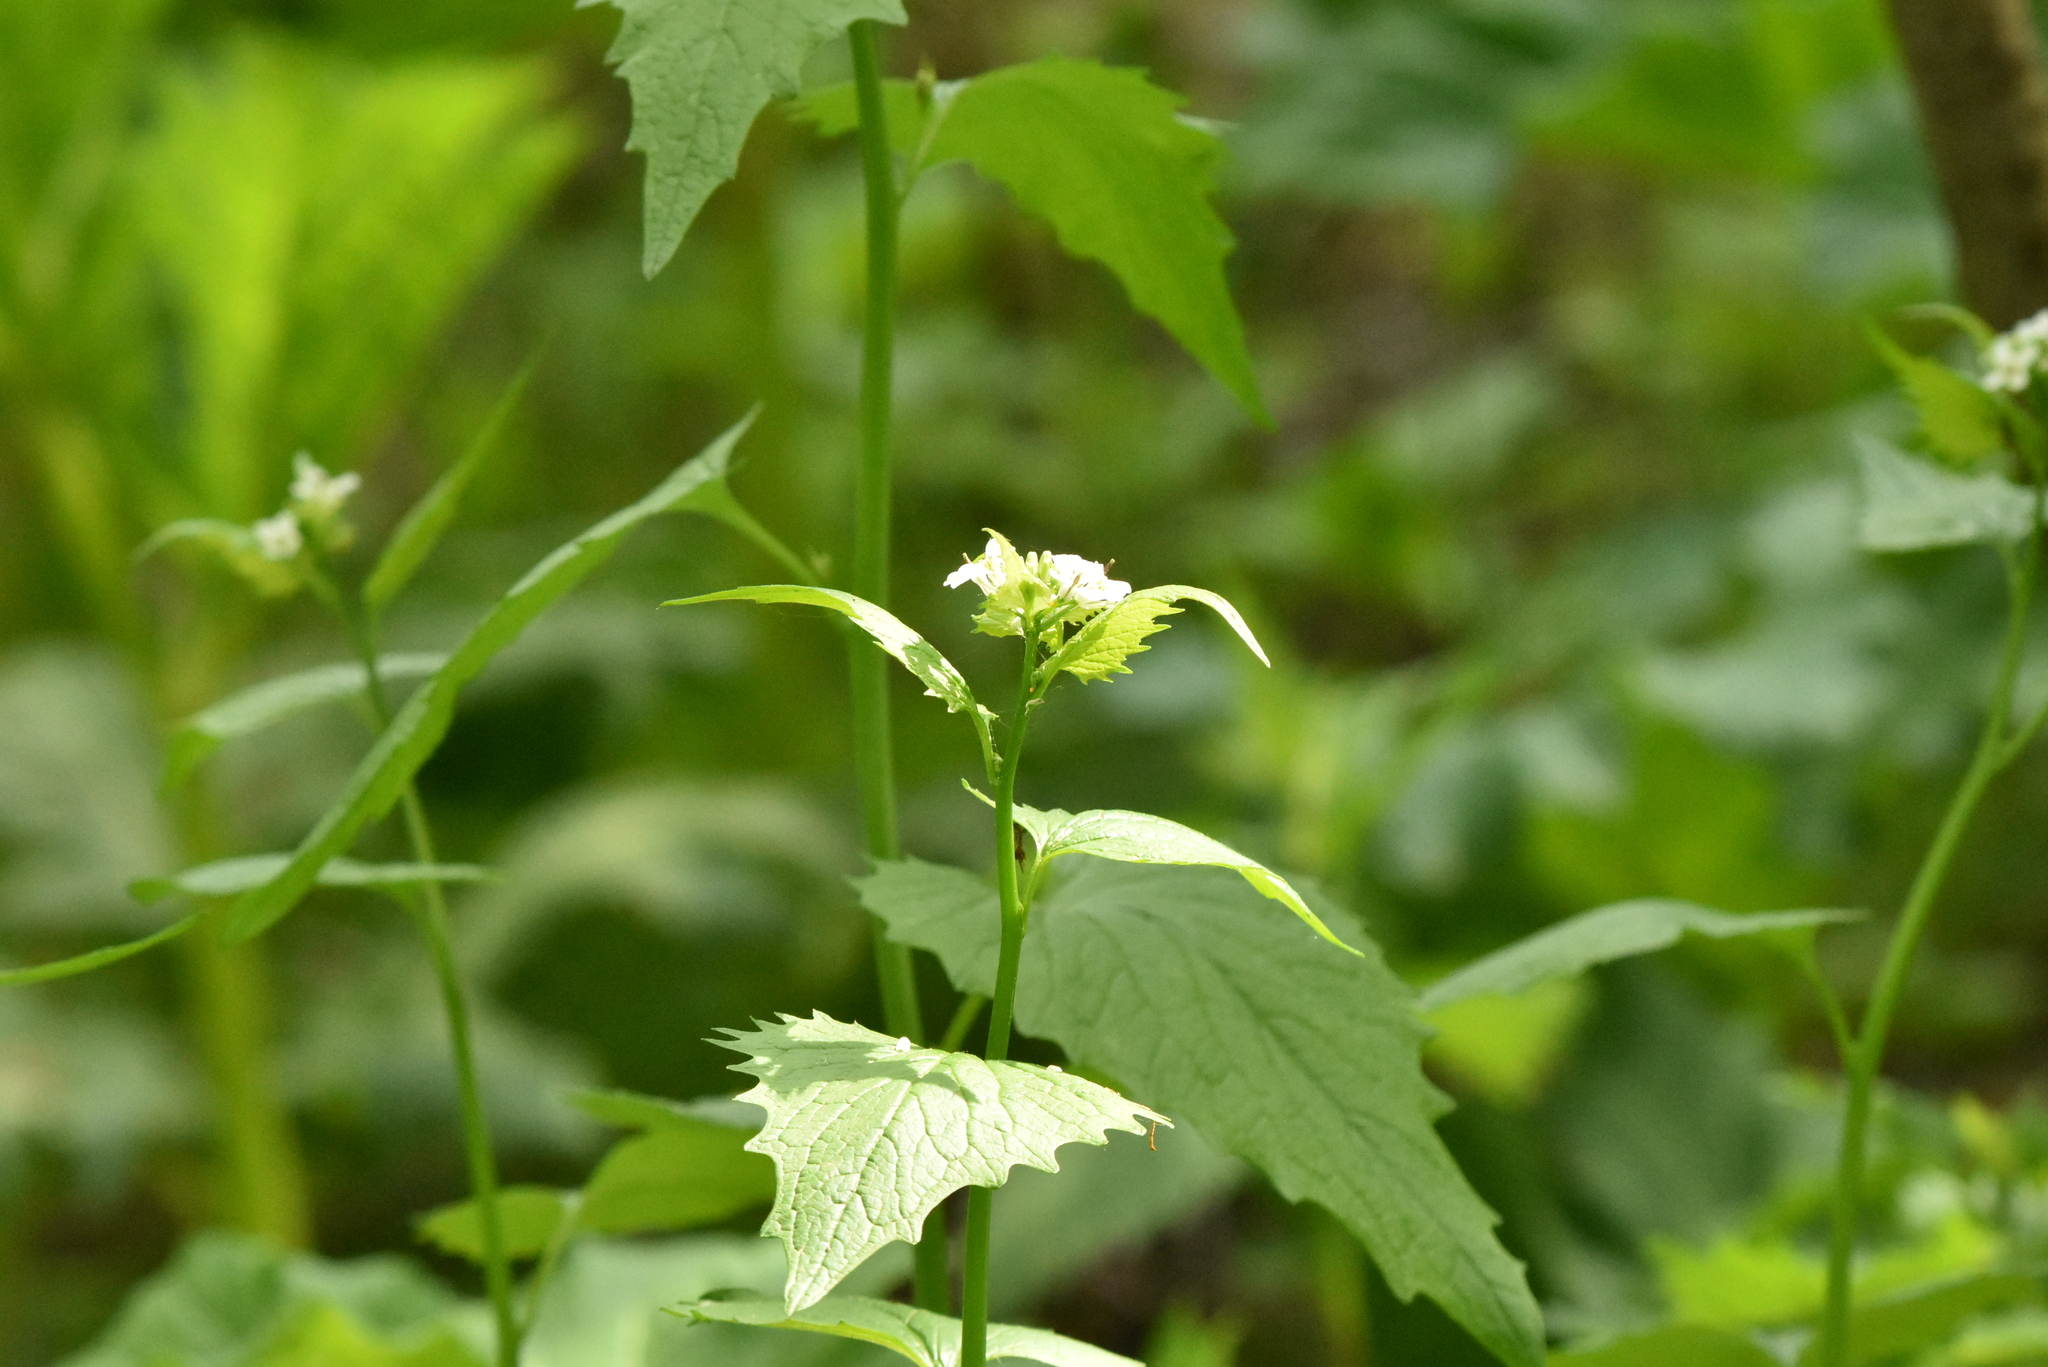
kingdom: Plantae
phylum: Tracheophyta
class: Magnoliopsida
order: Brassicales
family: Brassicaceae
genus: Alliaria
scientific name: Alliaria petiolata
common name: Garlic mustard
